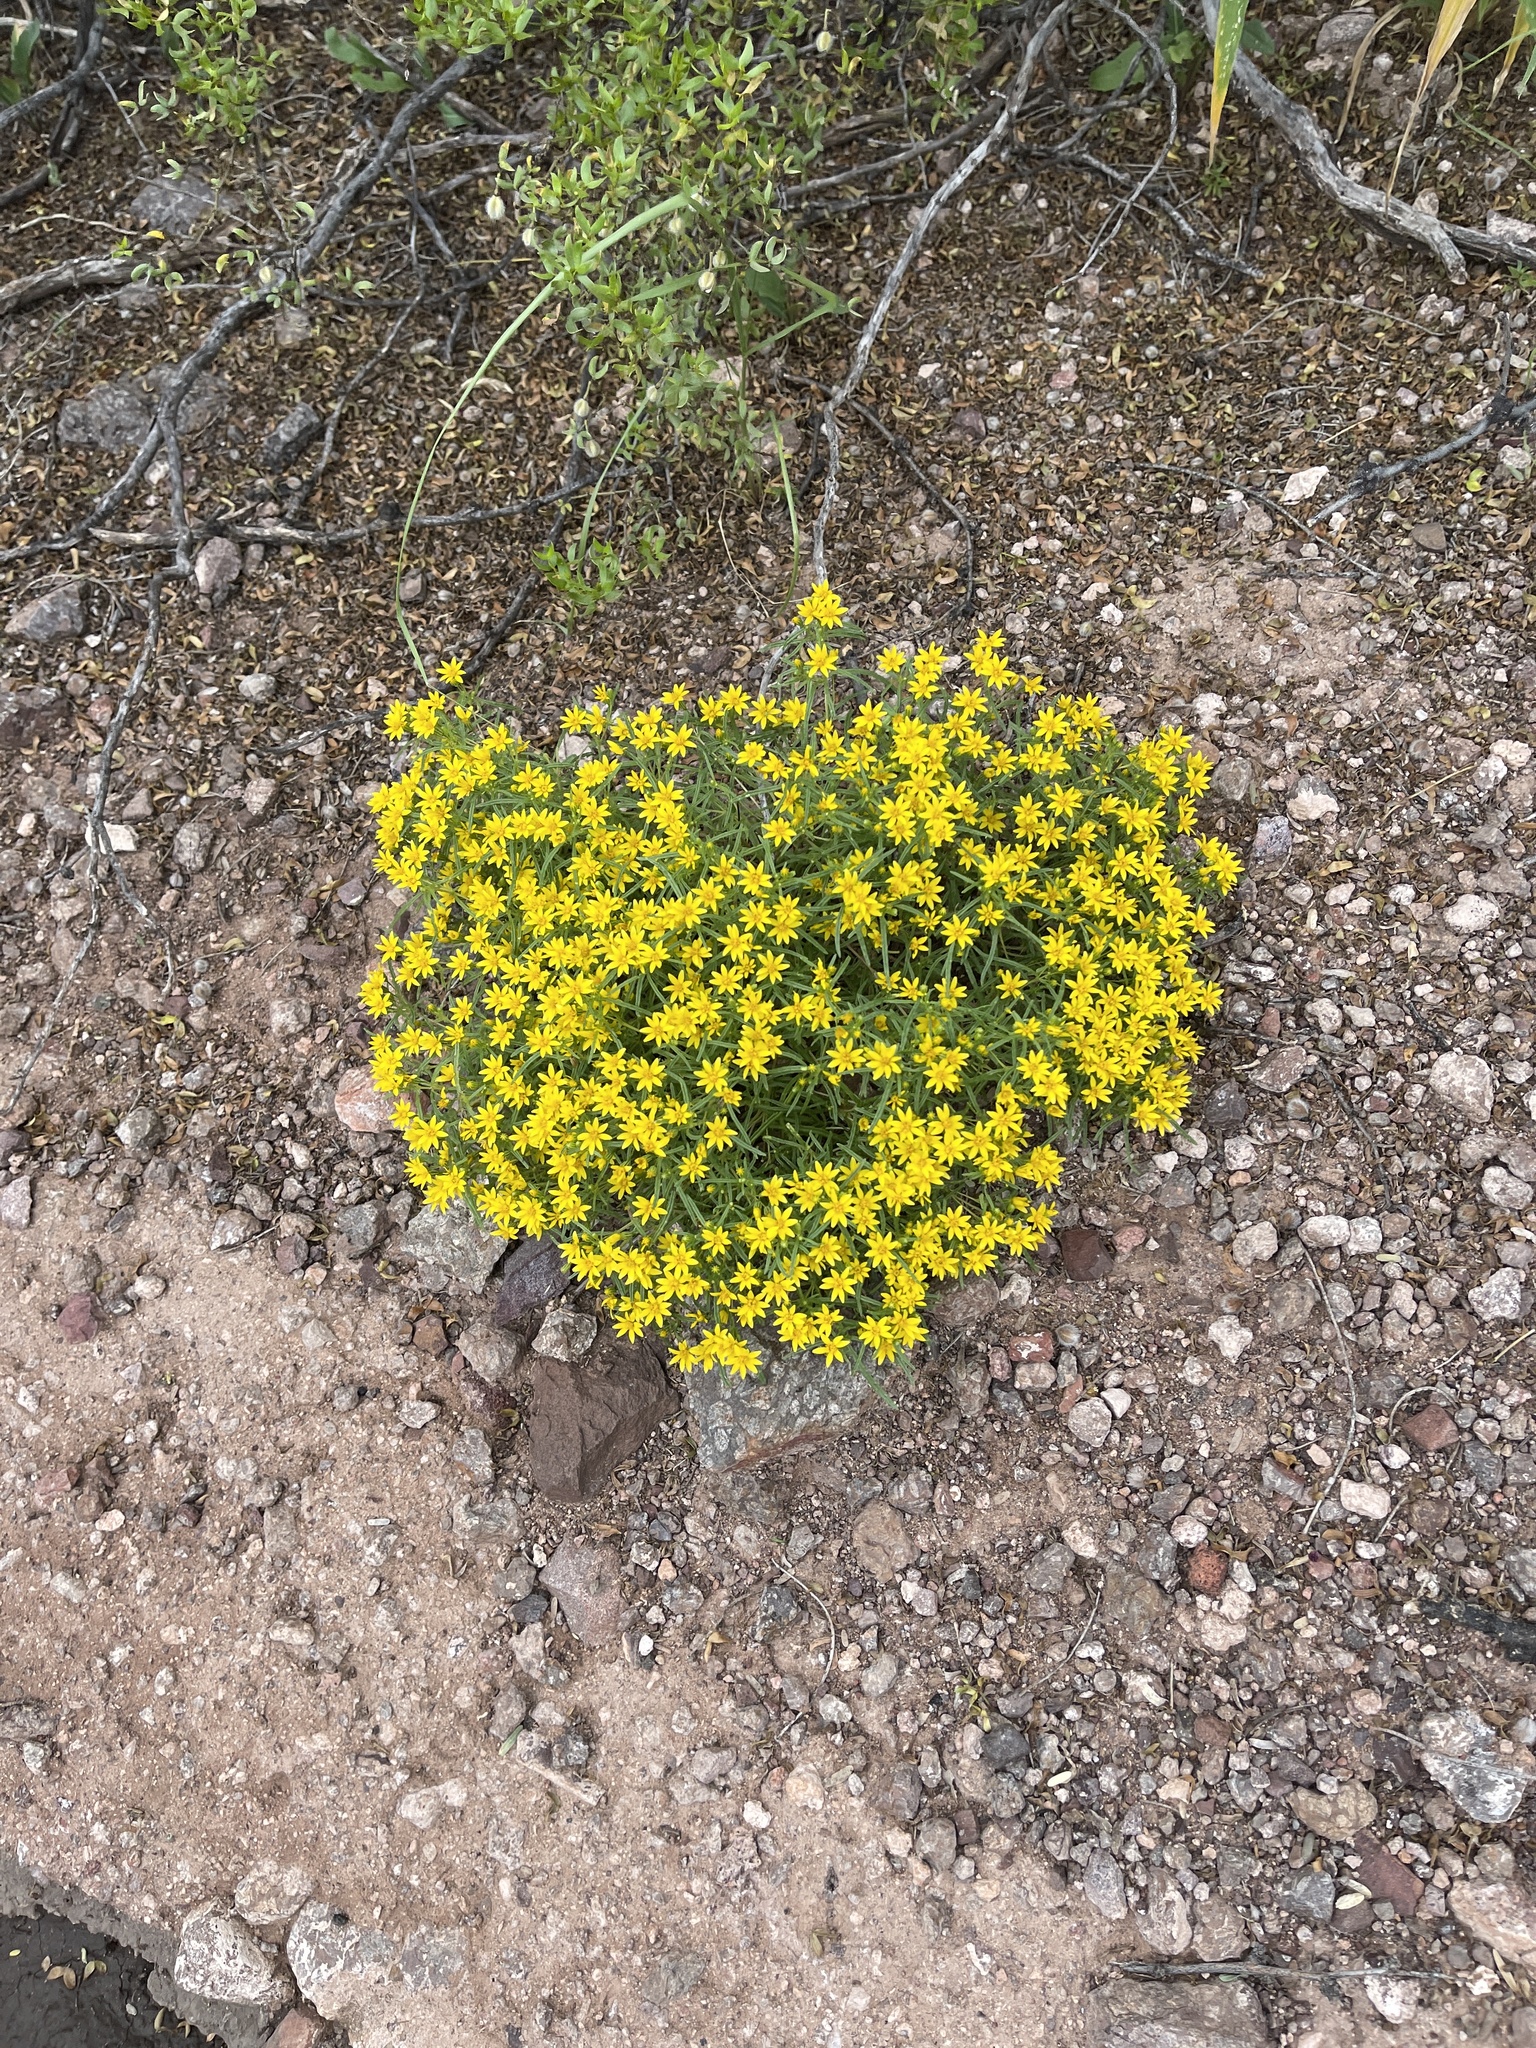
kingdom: Plantae
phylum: Tracheophyta
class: Magnoliopsida
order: Asterales
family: Asteraceae
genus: Pectis
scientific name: Pectis papposa
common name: Many-bristle chinchweed
